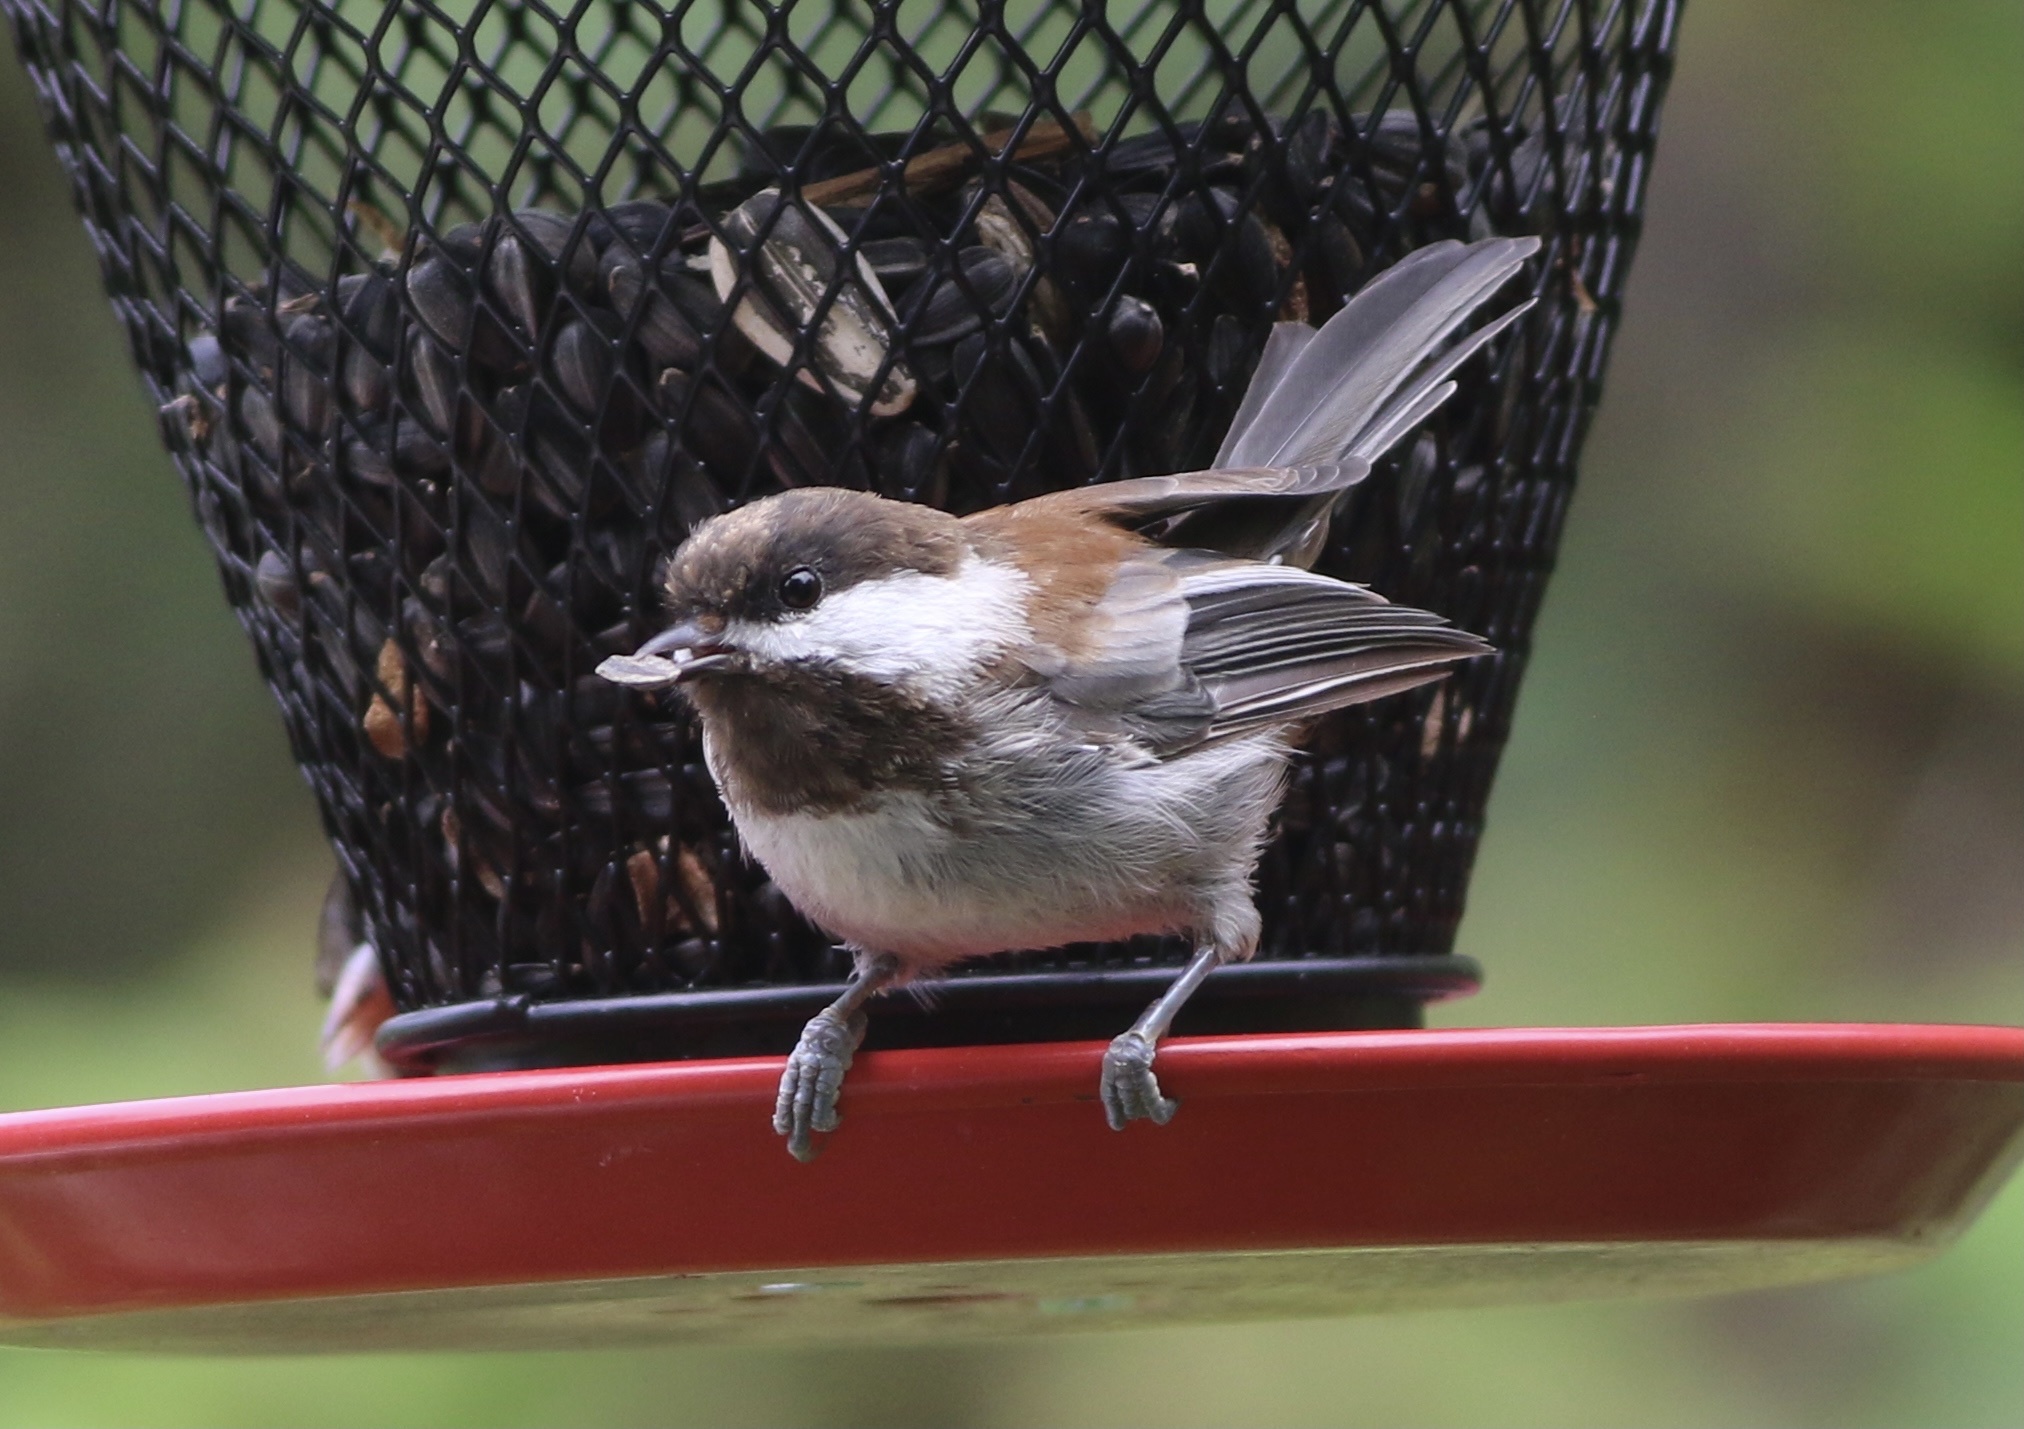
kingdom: Animalia
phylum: Chordata
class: Aves
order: Passeriformes
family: Paridae
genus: Poecile
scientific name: Poecile rufescens
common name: Chestnut-backed chickadee
